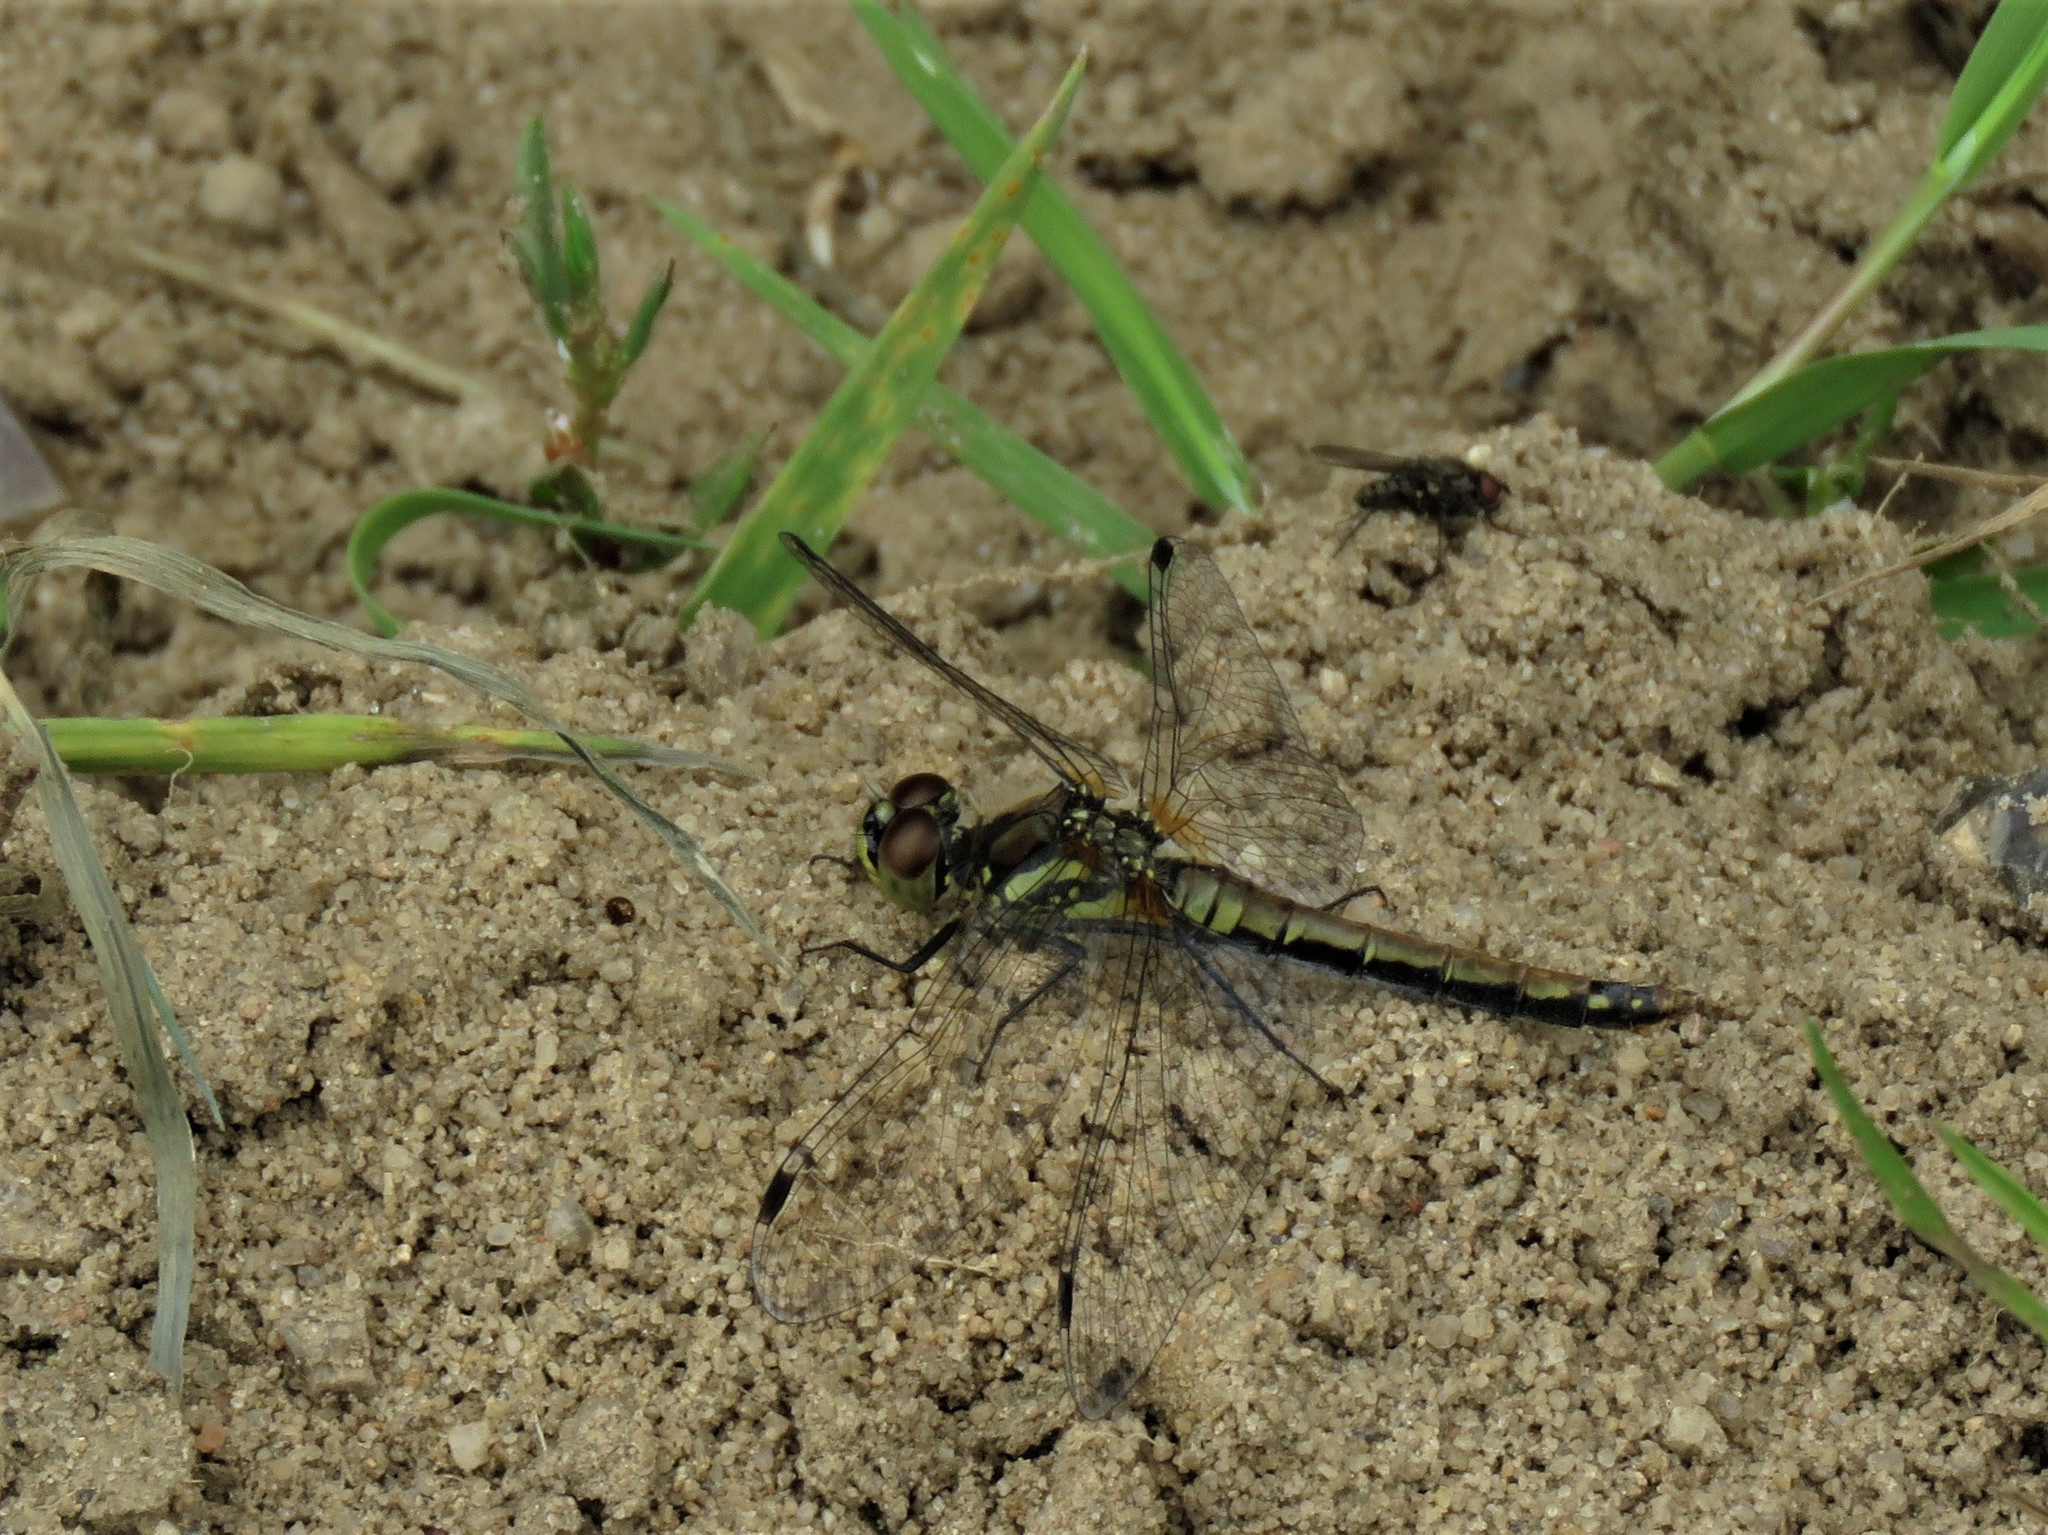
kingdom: Animalia
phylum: Arthropoda
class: Insecta
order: Odonata
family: Libellulidae
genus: Sympetrum
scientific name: Sympetrum danae
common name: Black darter
